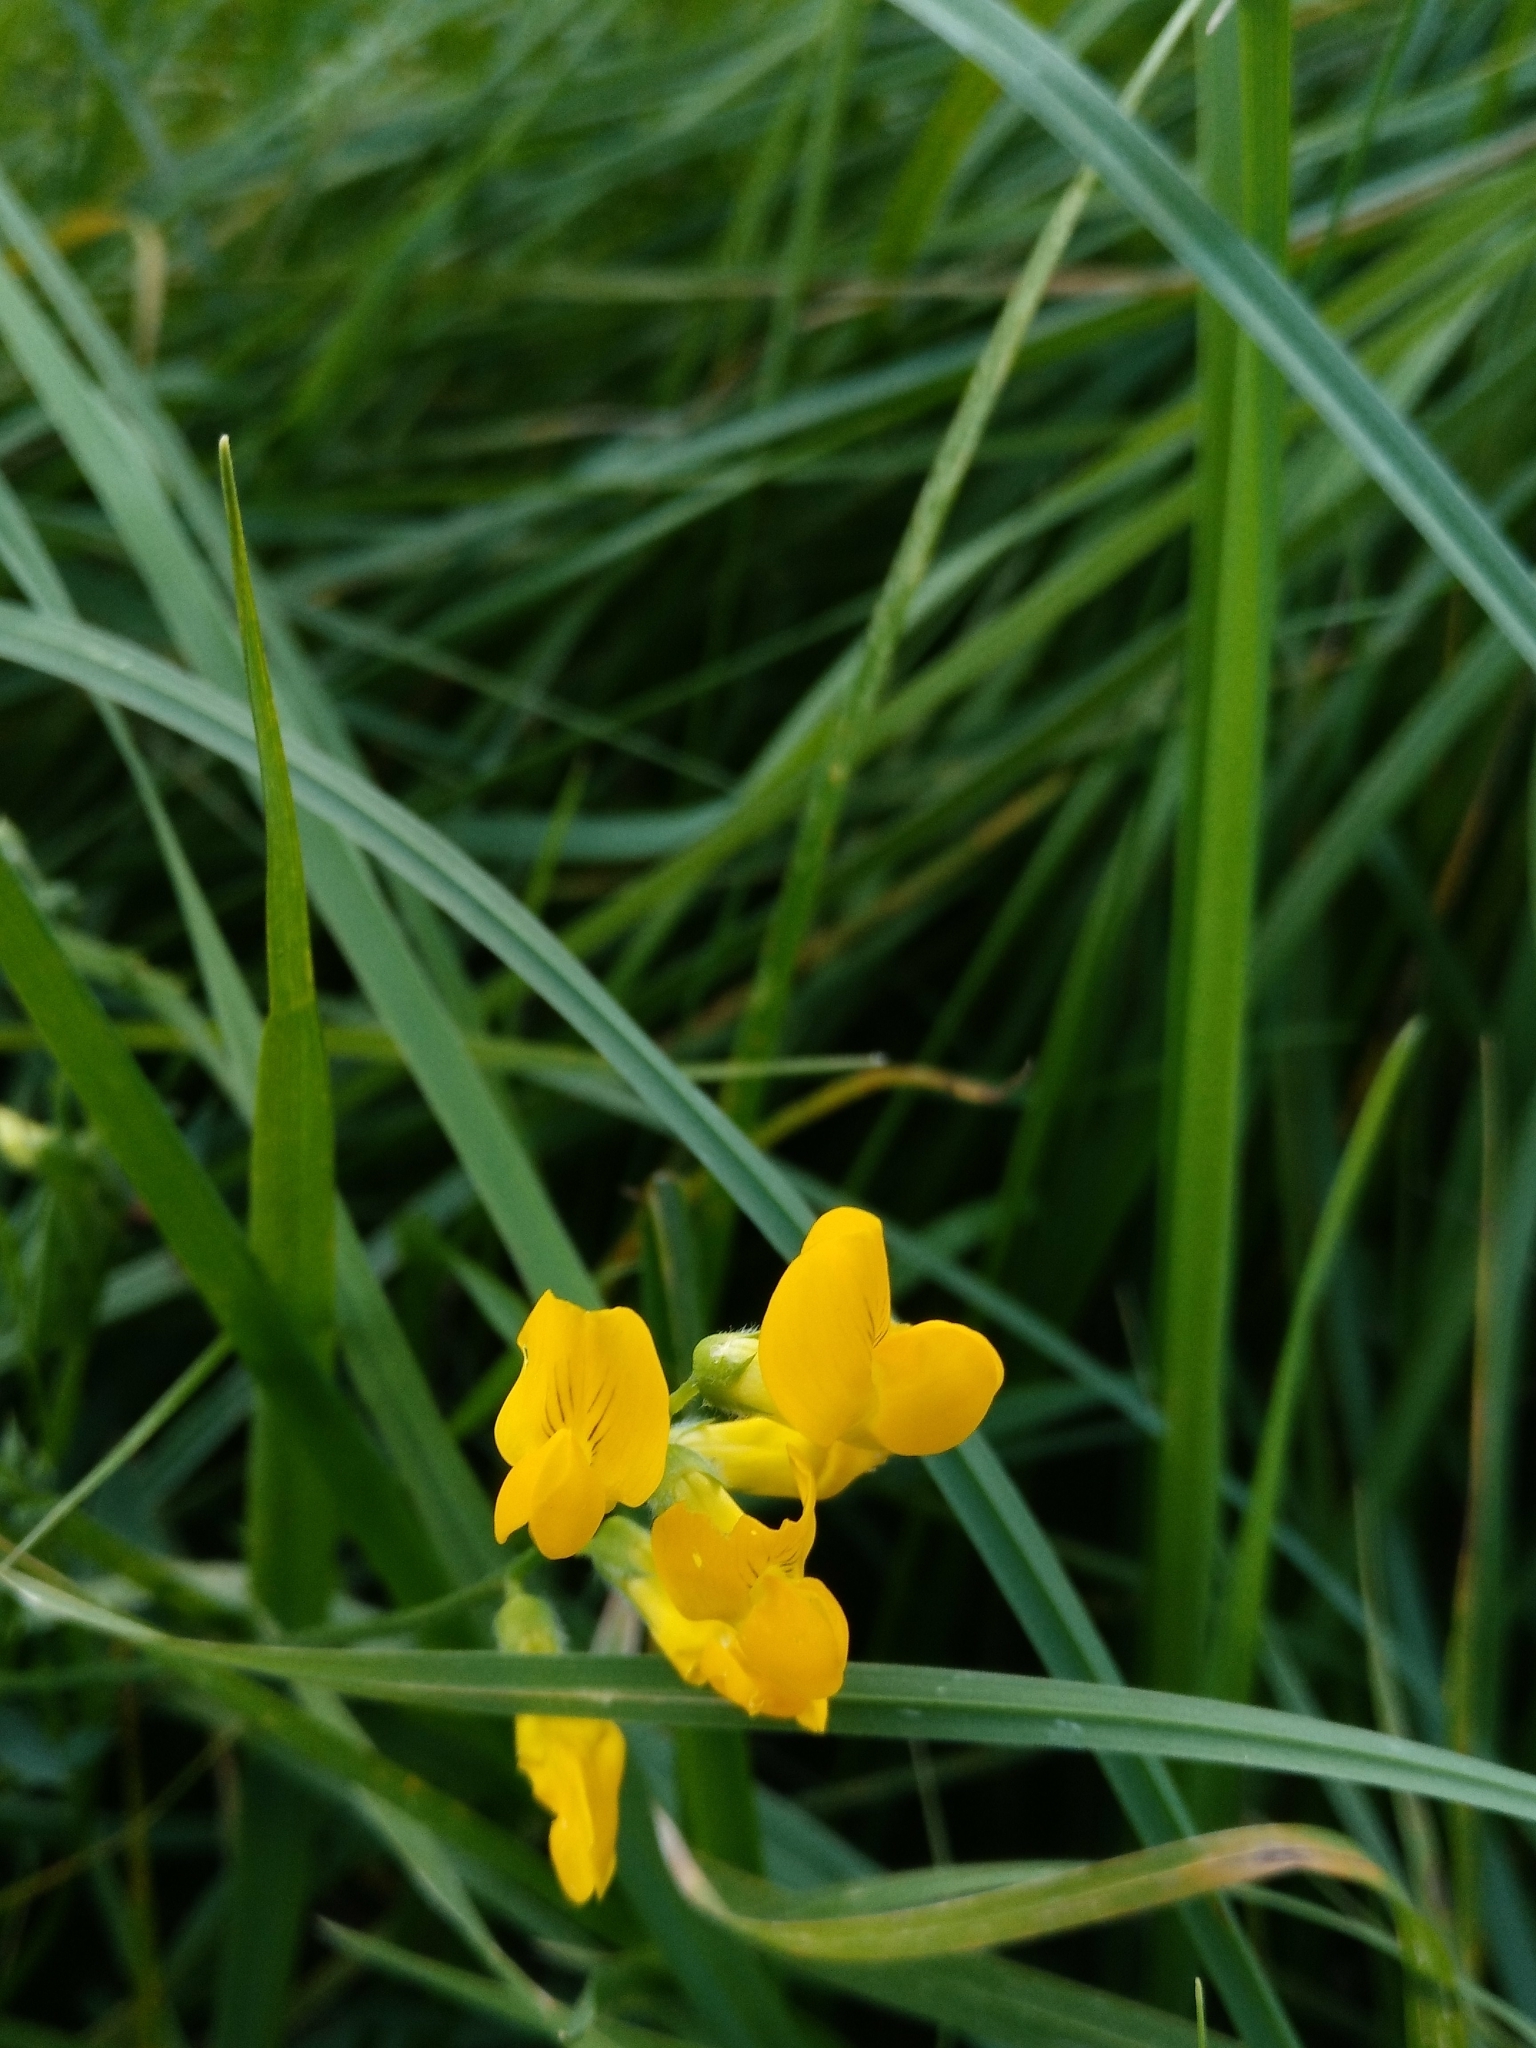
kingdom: Plantae
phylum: Tracheophyta
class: Magnoliopsida
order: Fabales
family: Fabaceae
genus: Lathyrus
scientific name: Lathyrus pratensis
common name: Meadow vetchling
